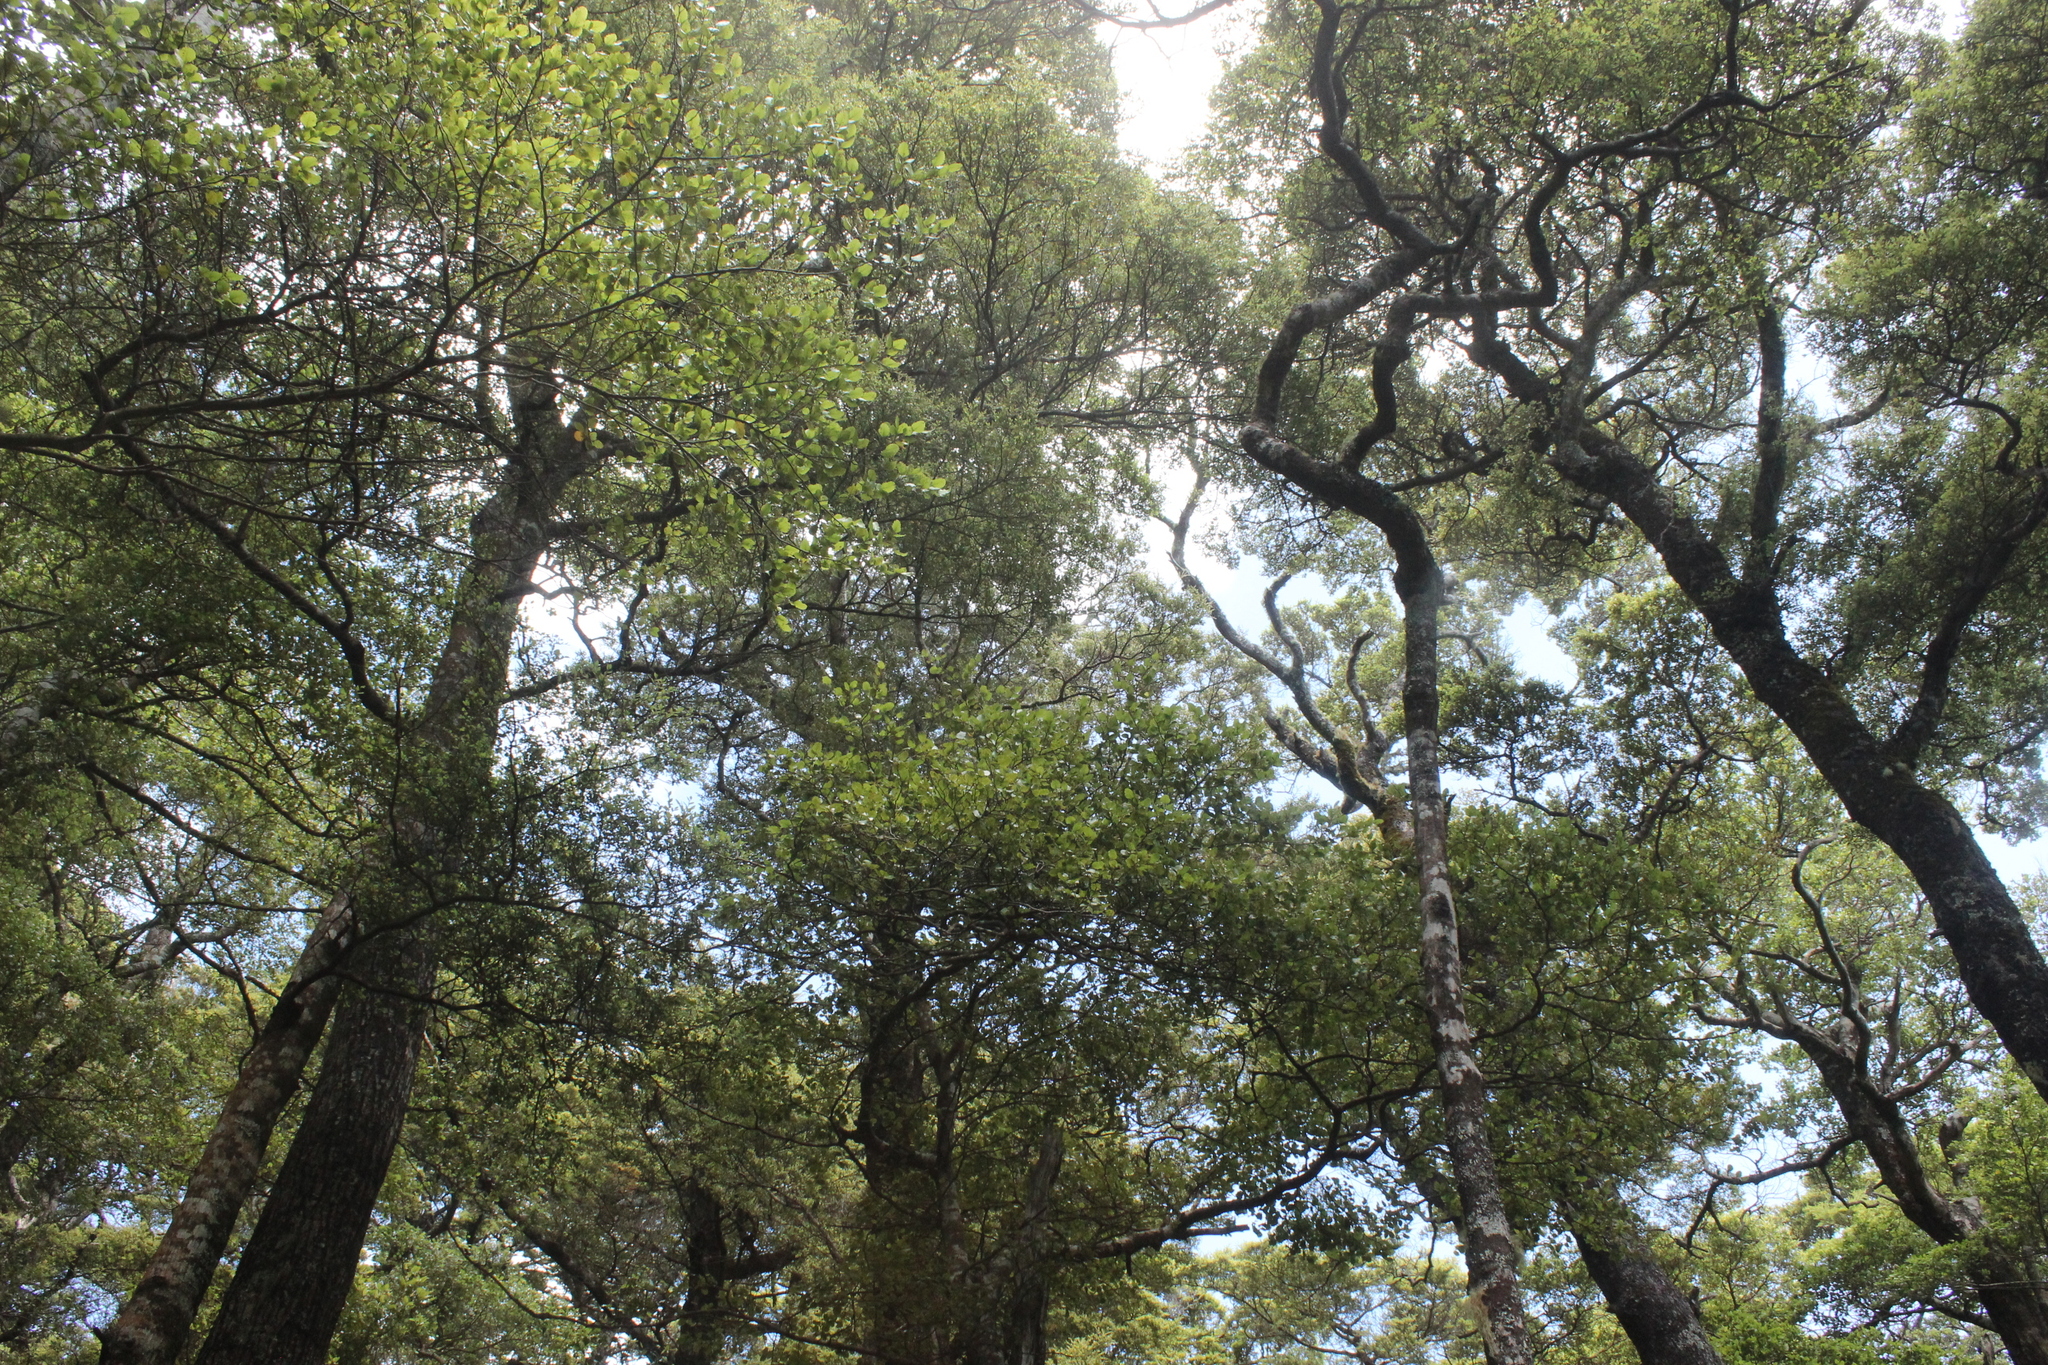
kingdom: Plantae
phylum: Tracheophyta
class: Magnoliopsida
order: Fagales
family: Nothofagaceae
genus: Nothofagus
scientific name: Nothofagus solandri
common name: Black beech
